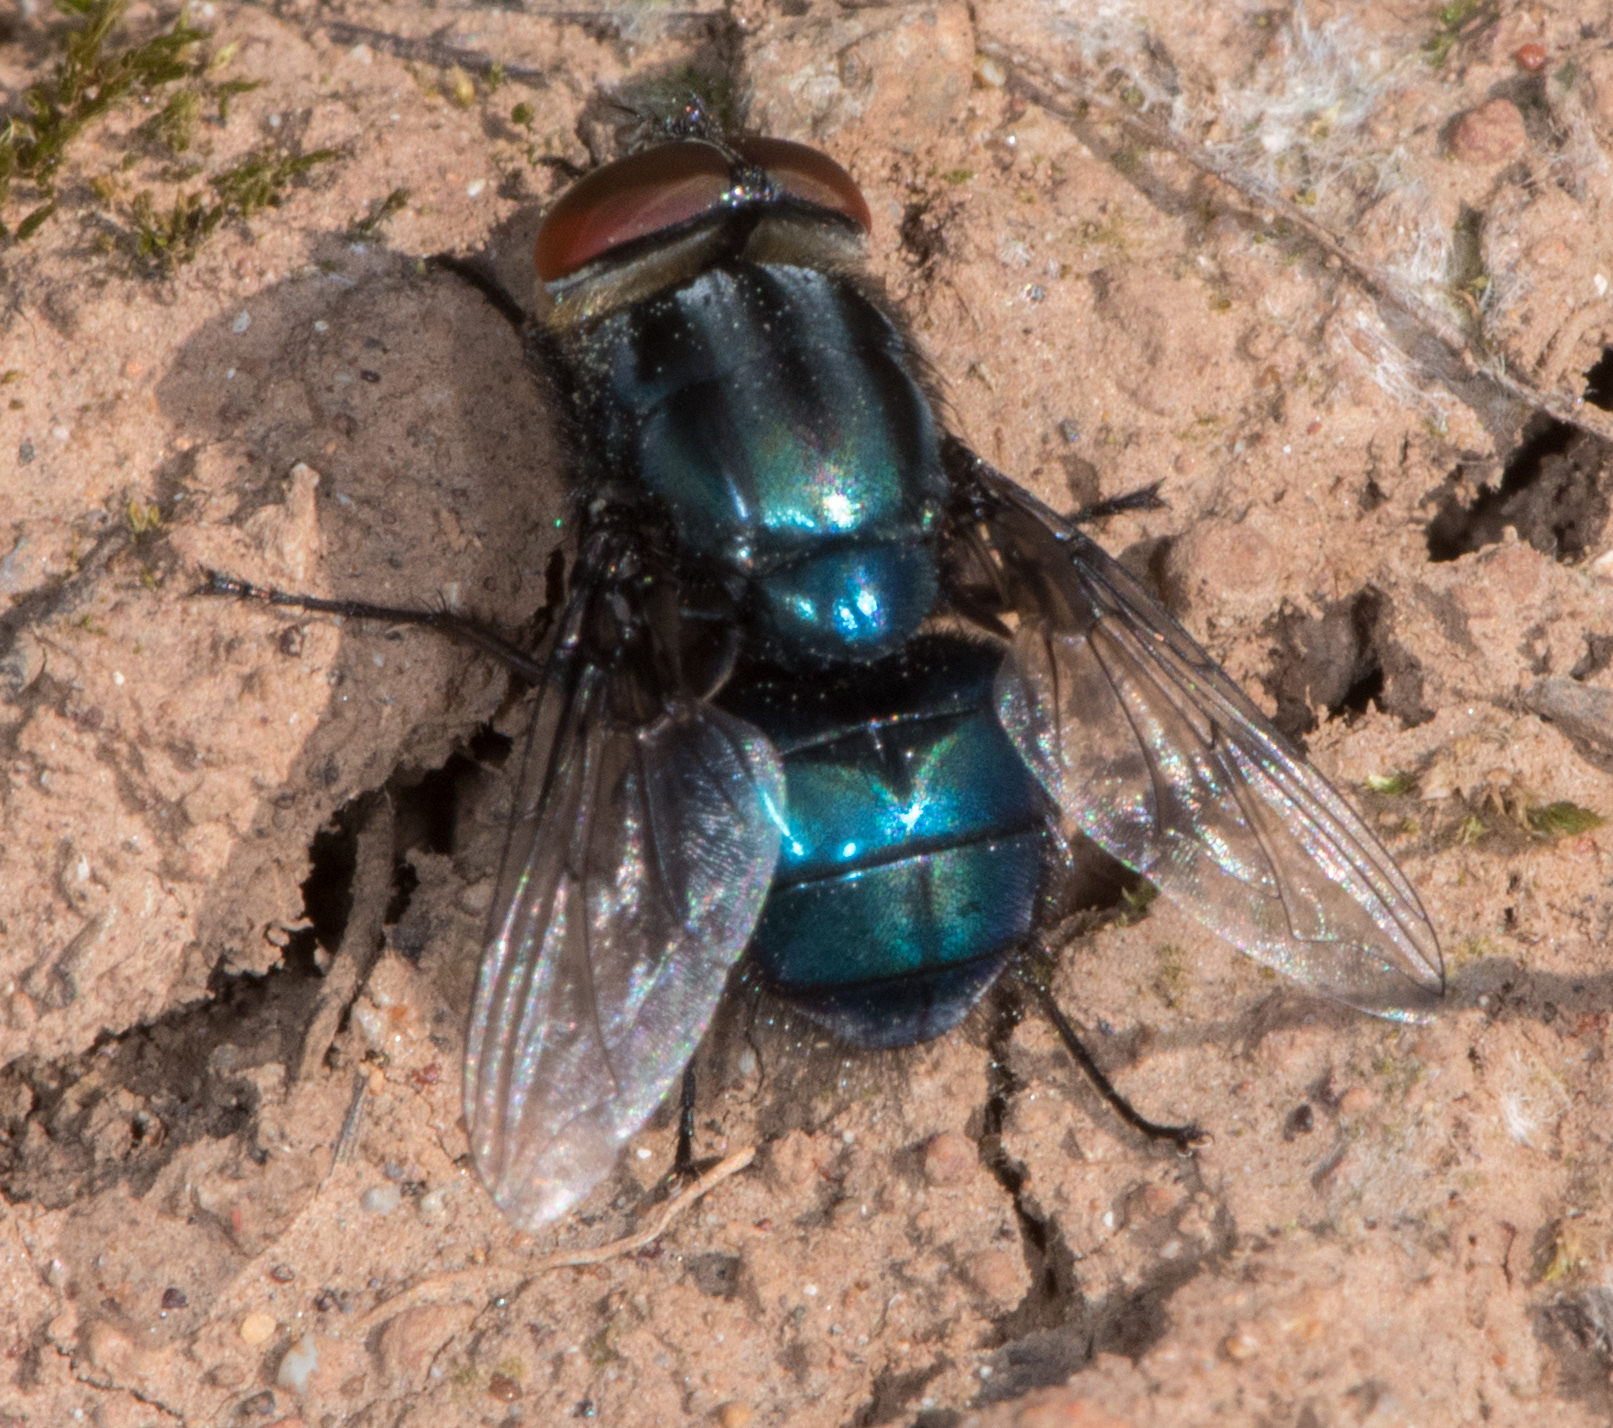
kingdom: Animalia
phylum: Arthropoda
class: Insecta
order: Diptera
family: Calliphoridae
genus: Compsomyiops
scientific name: Compsomyiops callipes
